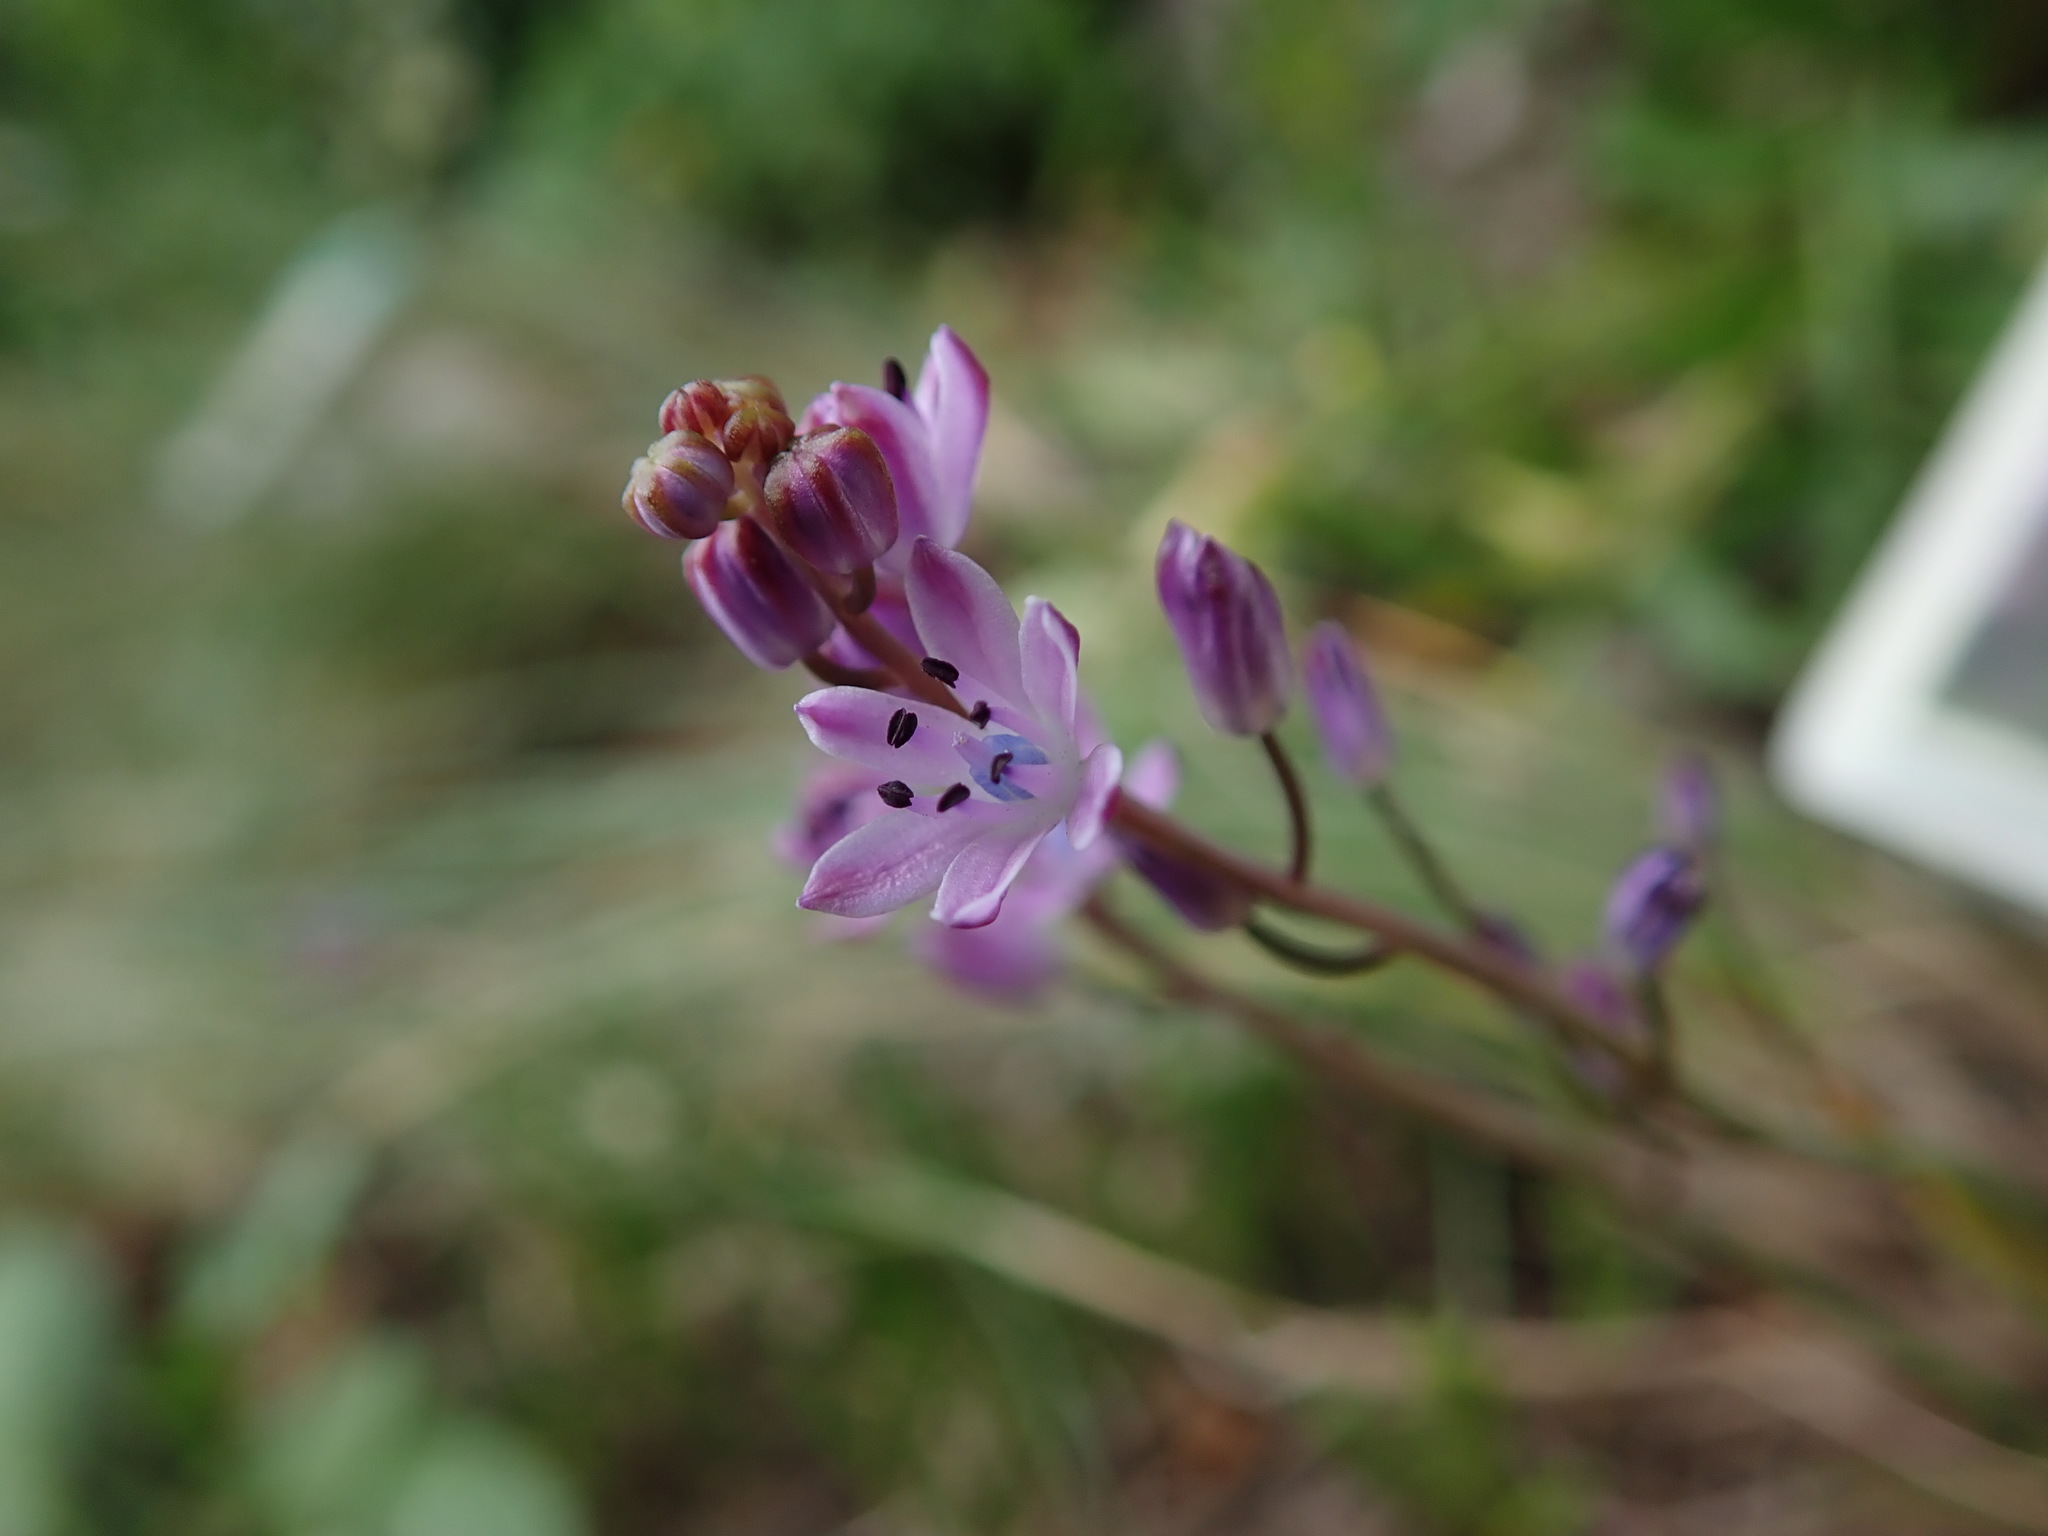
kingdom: Plantae
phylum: Tracheophyta
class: Liliopsida
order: Asparagales
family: Asparagaceae
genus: Prospero
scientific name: Prospero autumnale
